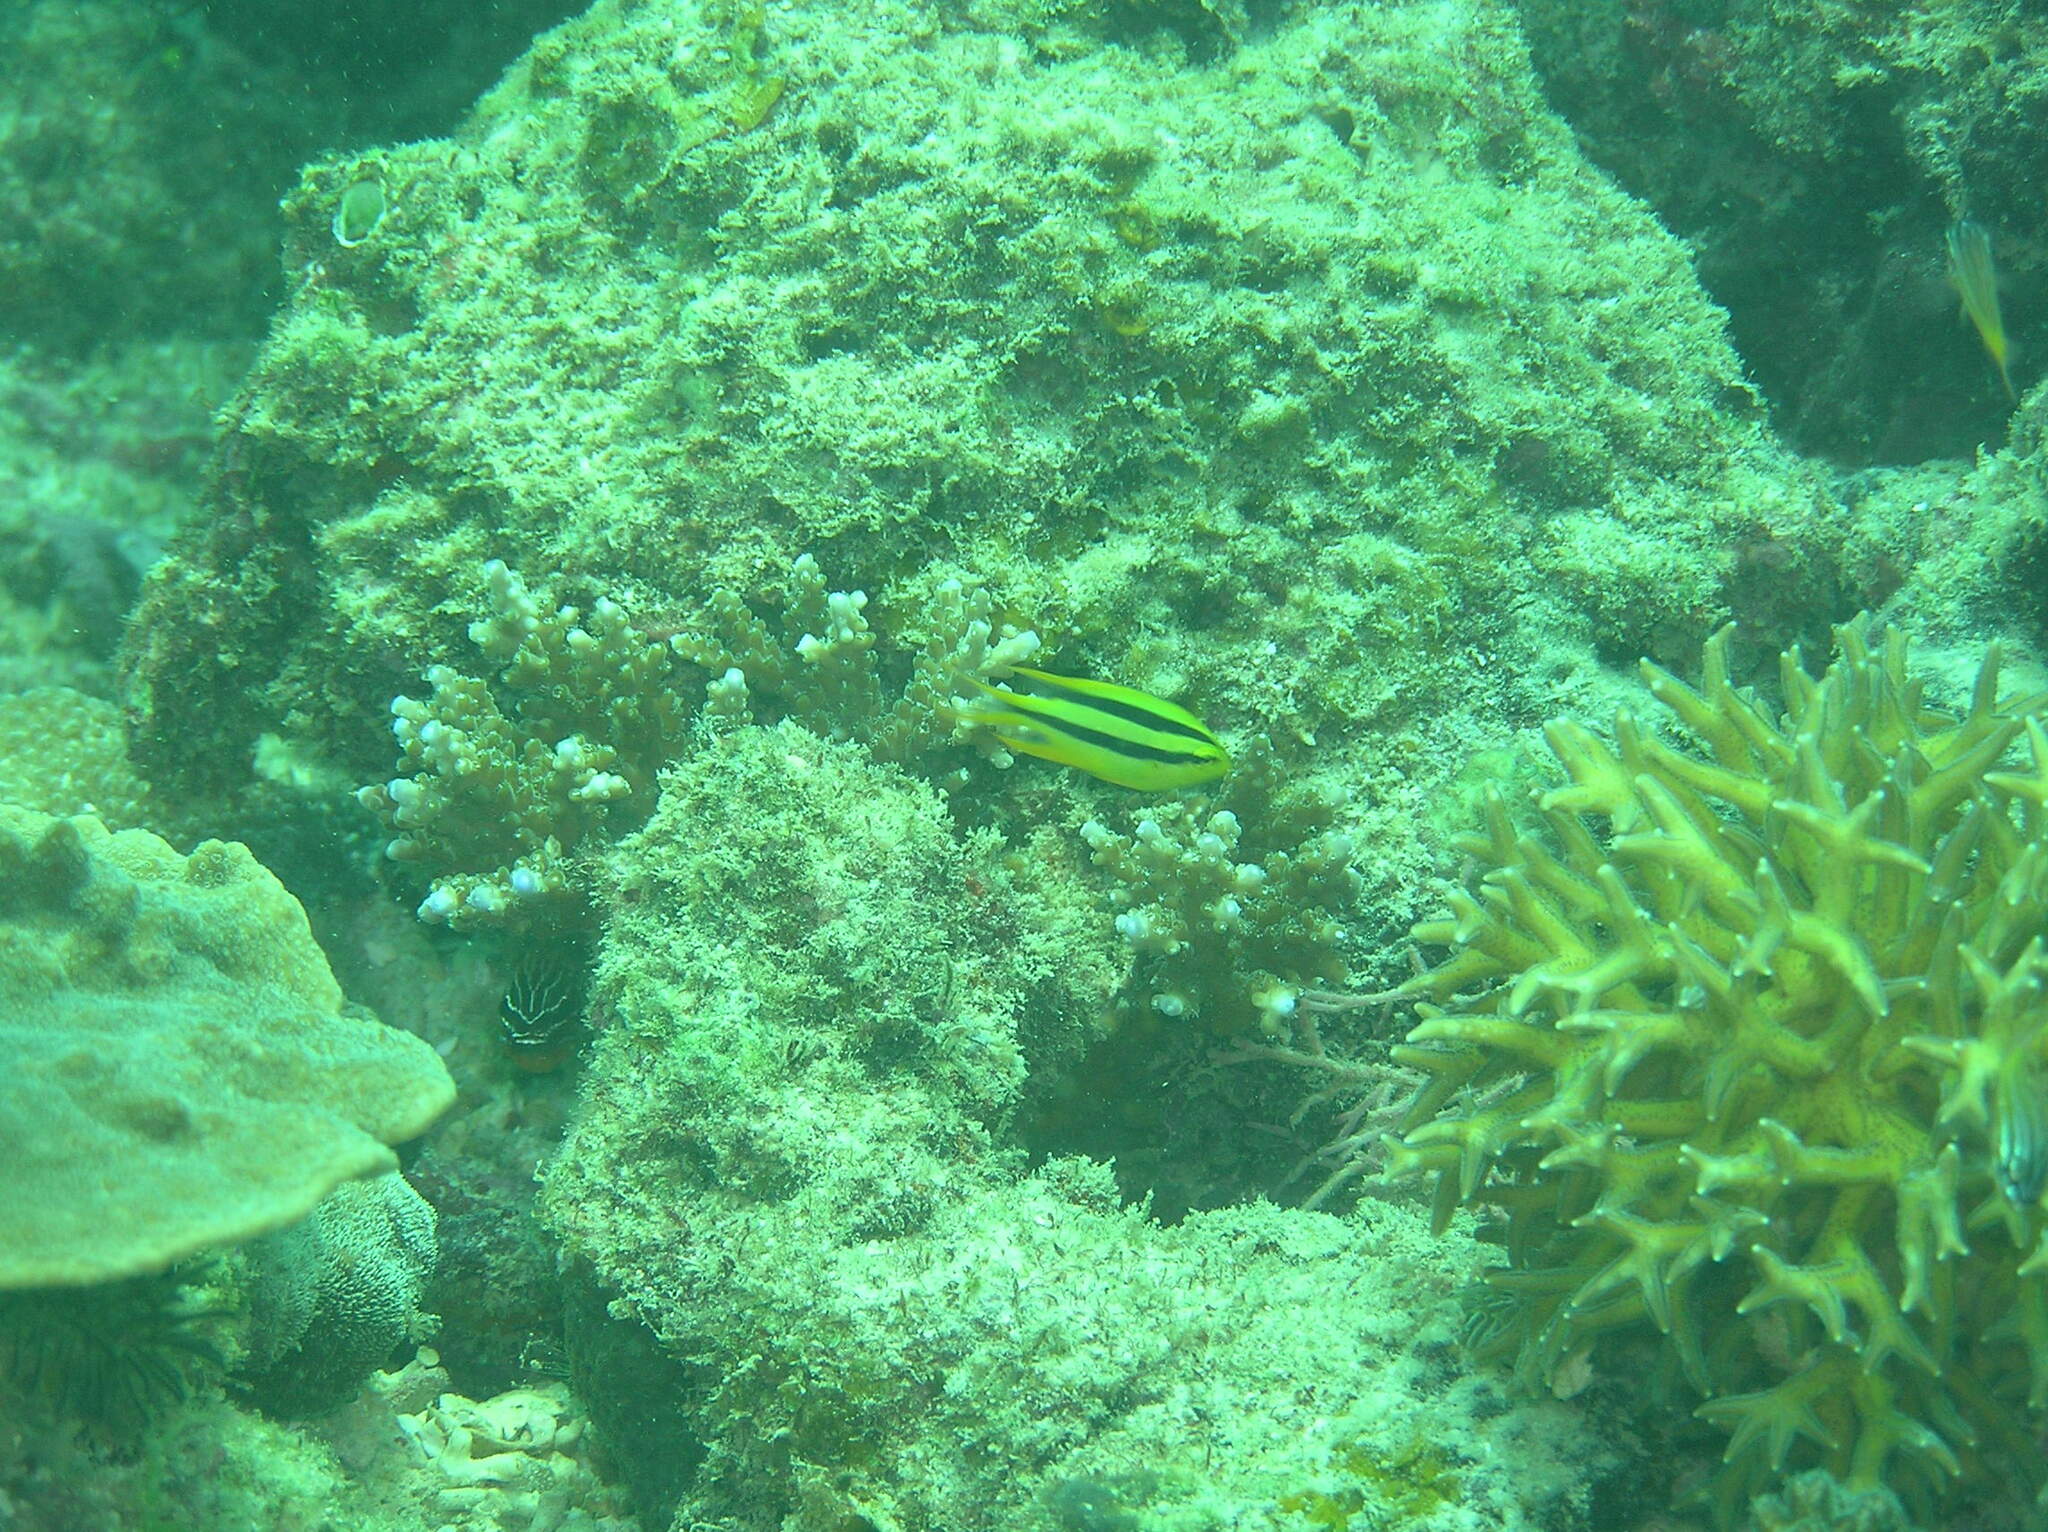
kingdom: Animalia
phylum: Chordata
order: Perciformes
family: Pomacentridae
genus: Neoglyphidodon
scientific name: Neoglyphidodon nigroris
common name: Behn's damsel
